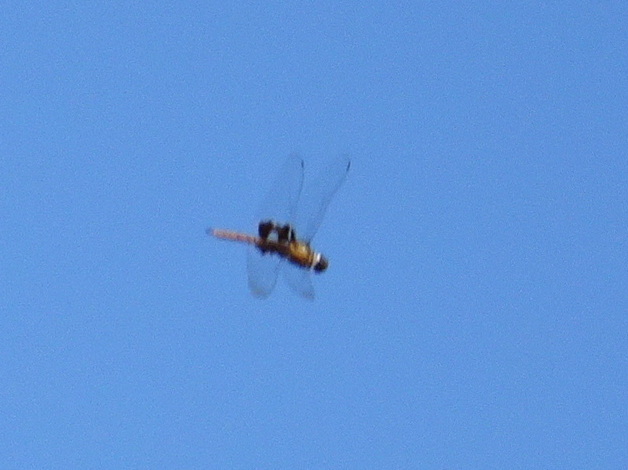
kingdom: Animalia
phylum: Arthropoda
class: Insecta
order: Odonata
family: Libellulidae
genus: Tramea
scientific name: Tramea onusta
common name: Red saddlebags
